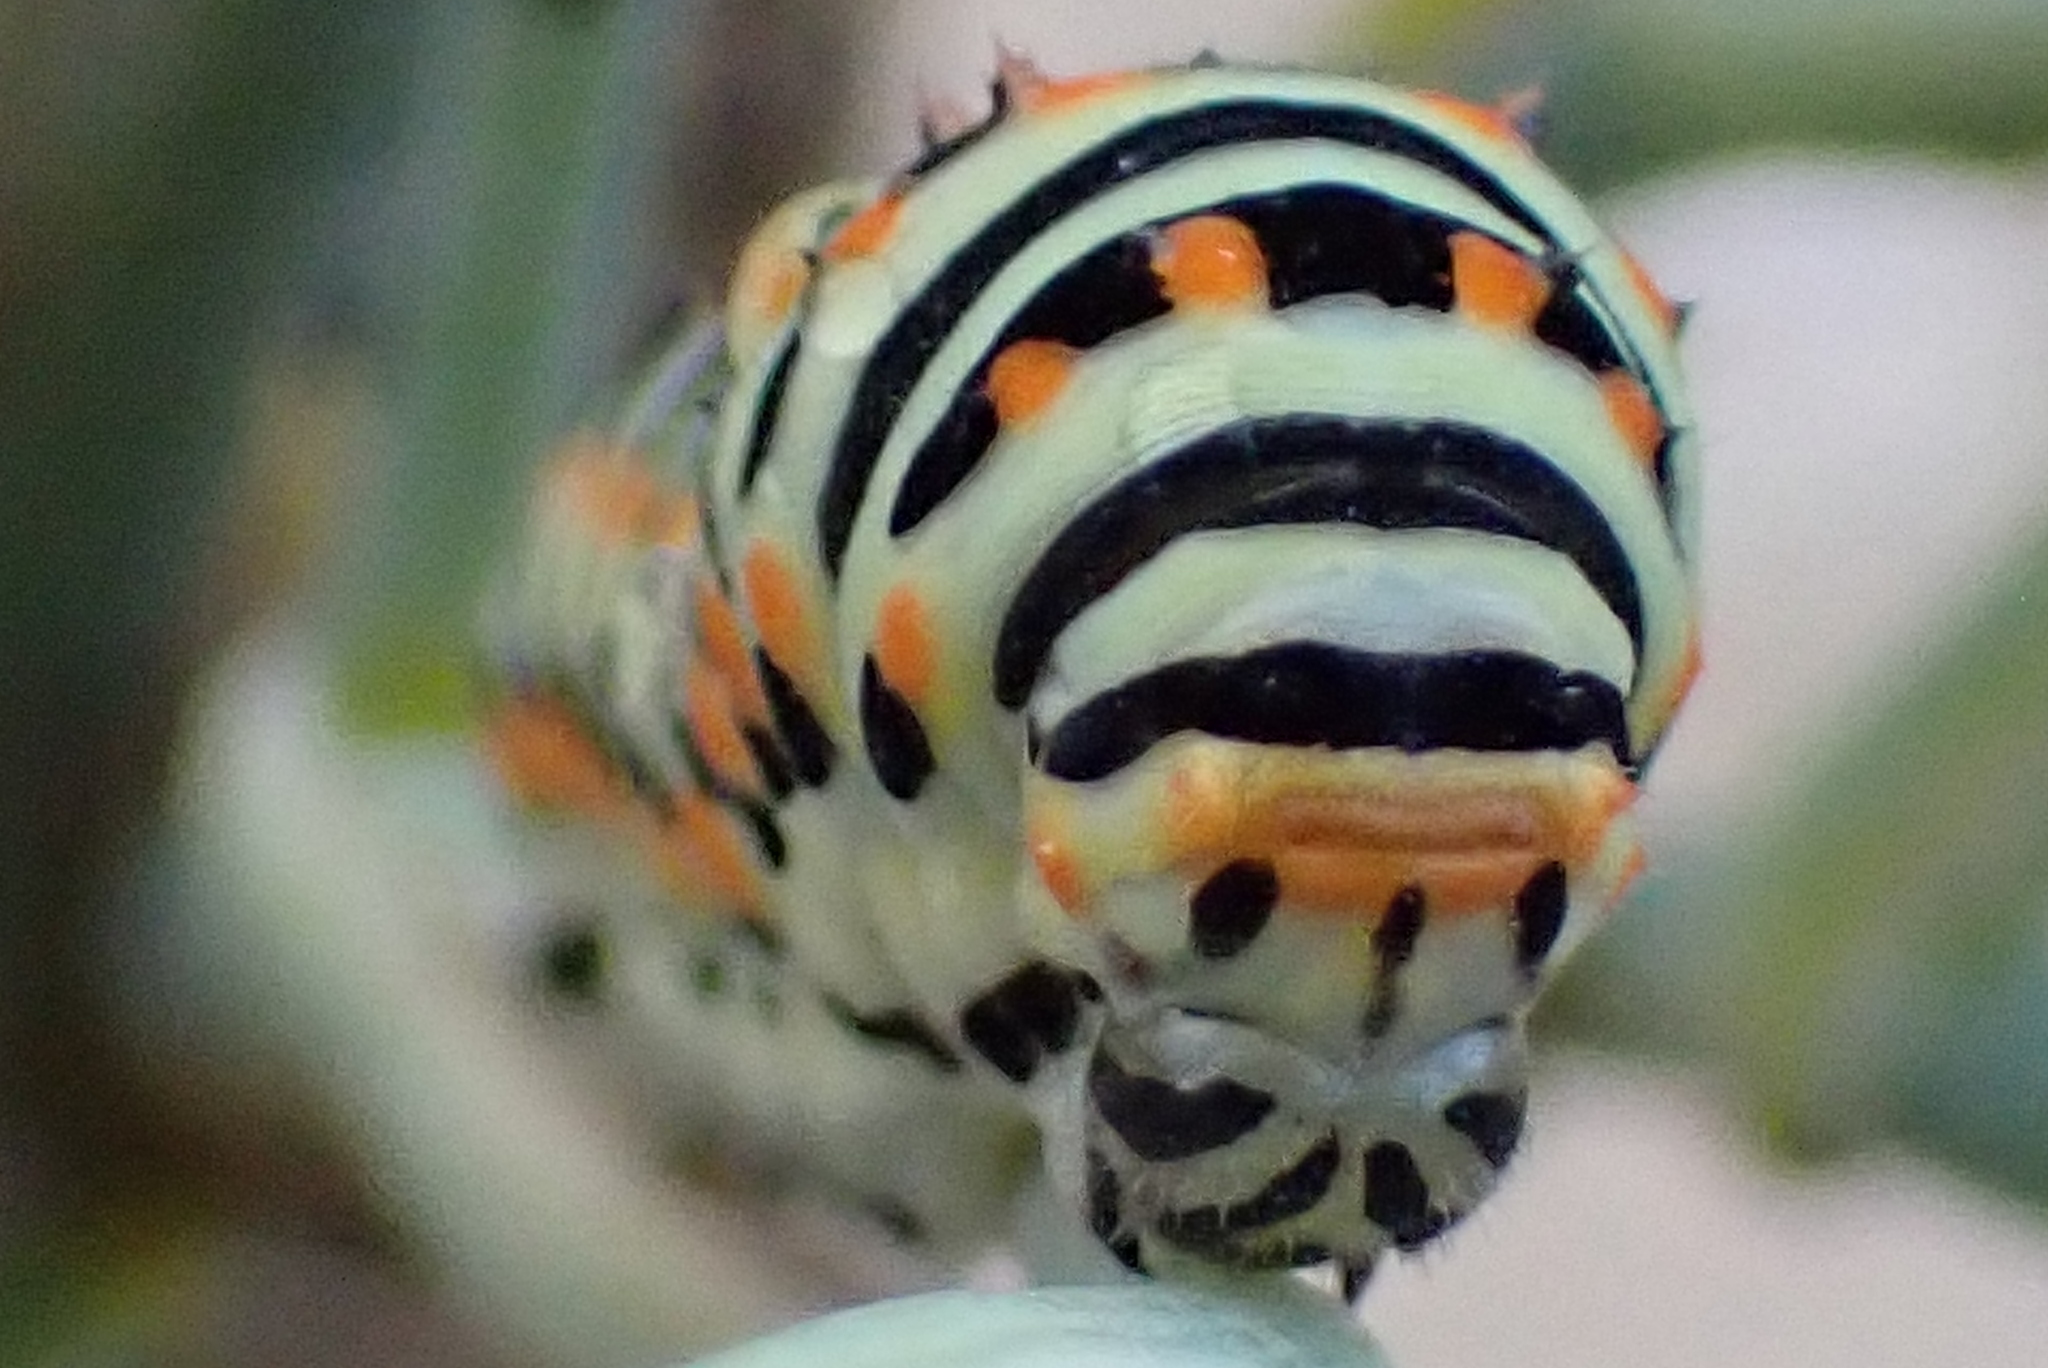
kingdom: Animalia
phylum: Arthropoda
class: Insecta
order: Lepidoptera
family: Papilionidae
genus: Papilio
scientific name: Papilio machaon
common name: Swallowtail
